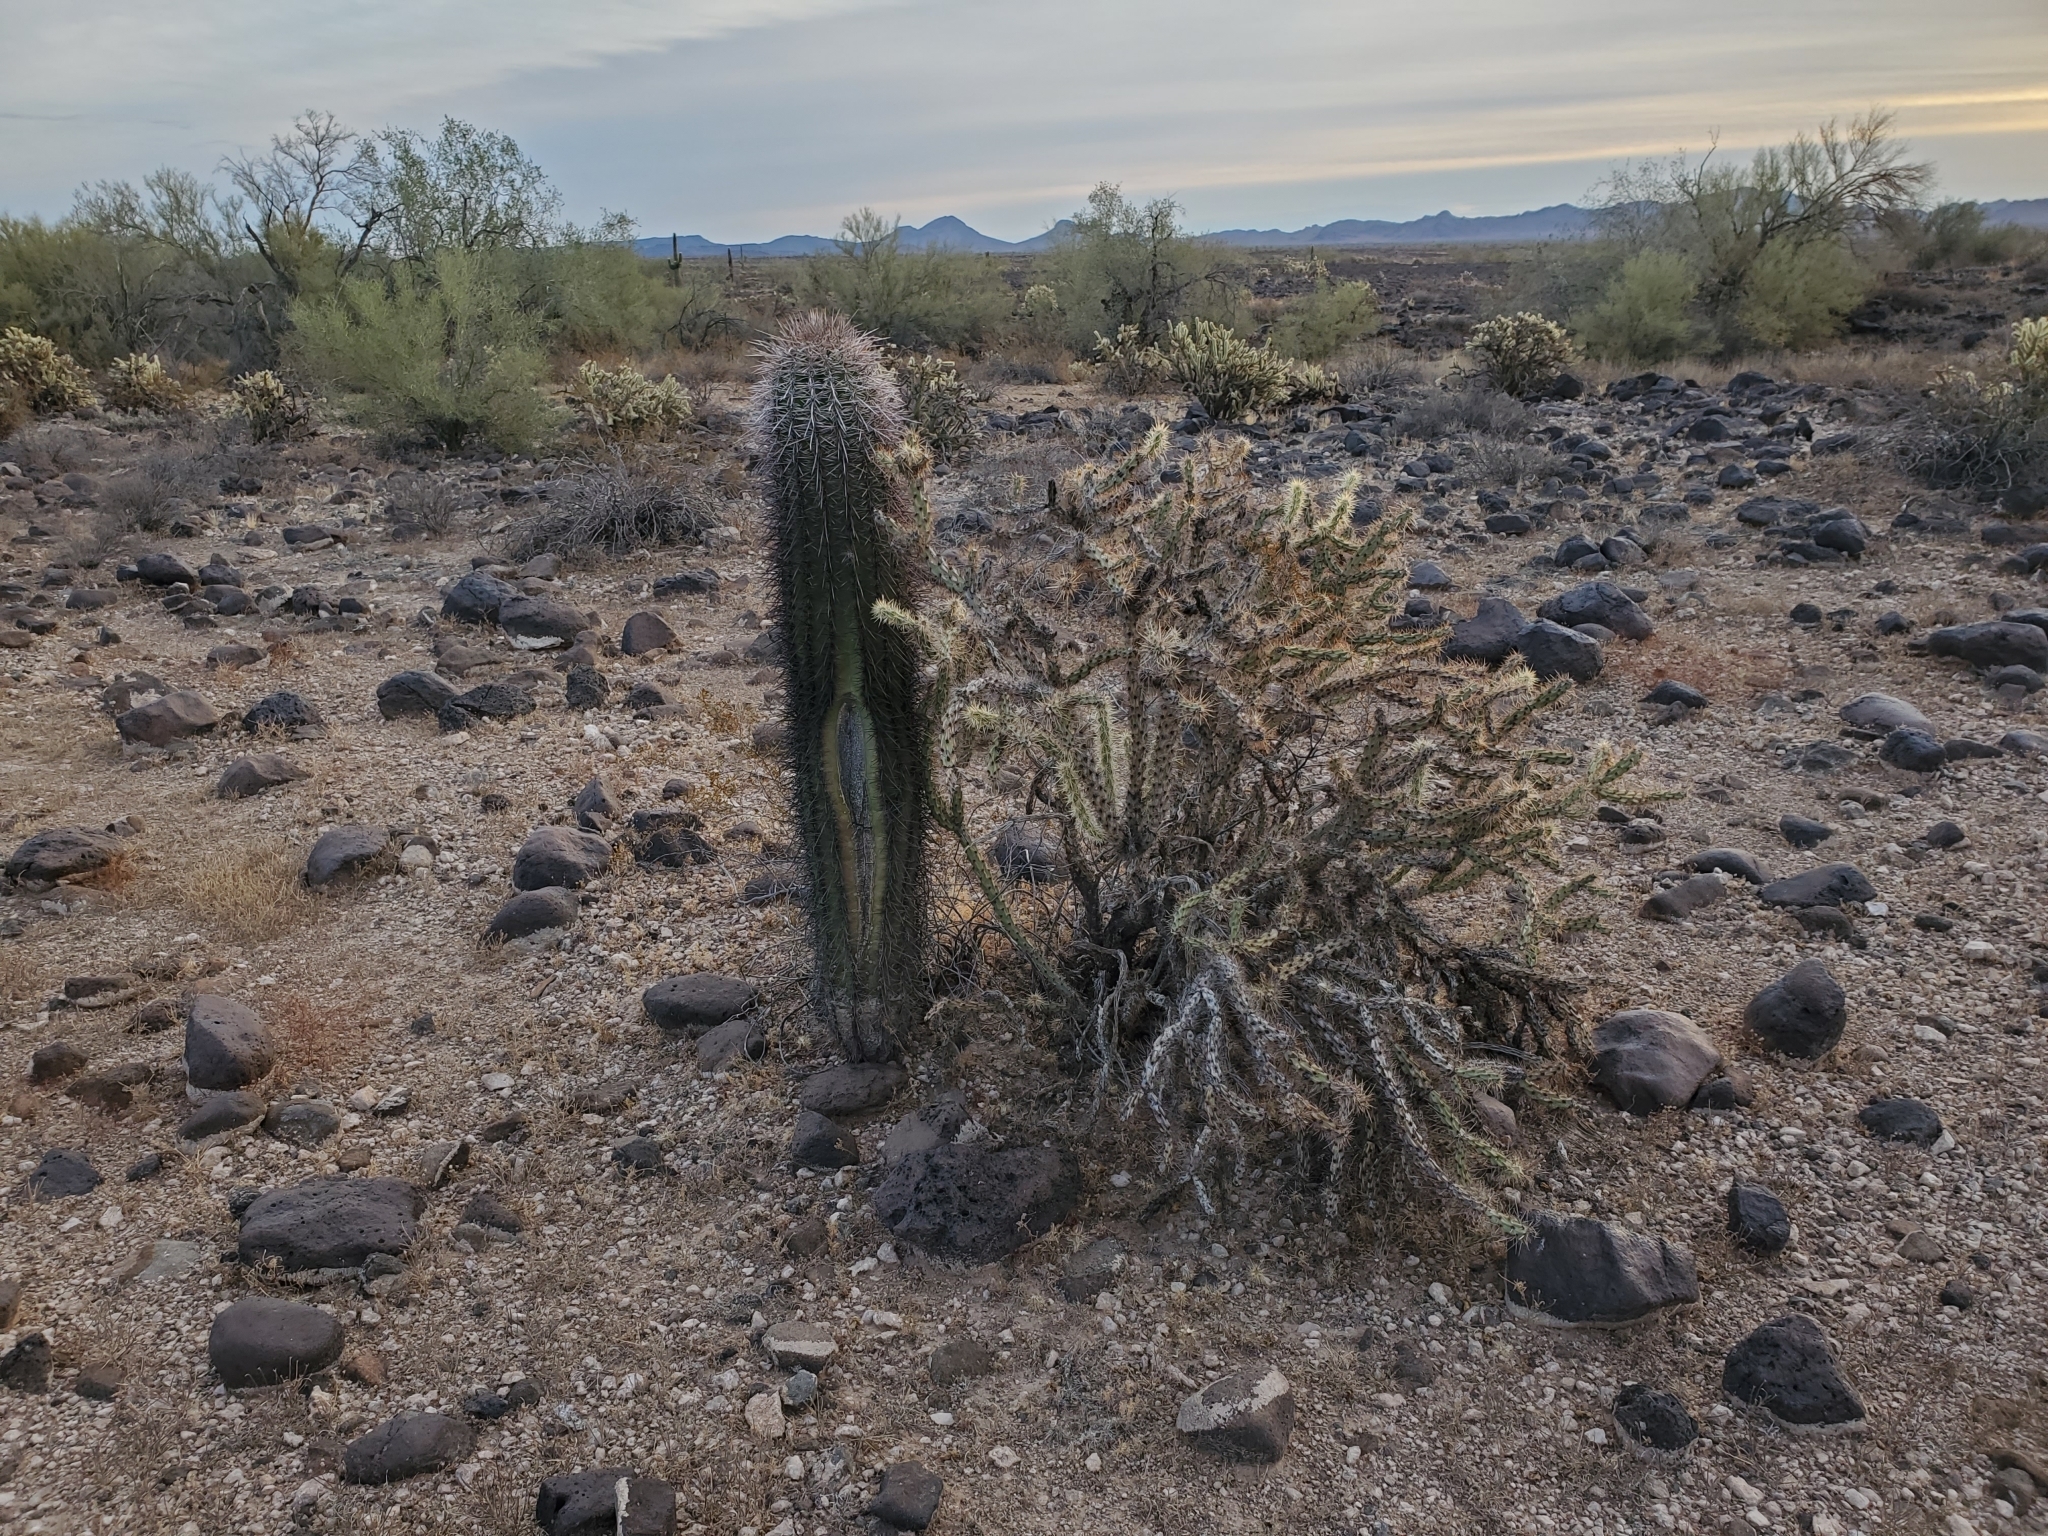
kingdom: Plantae
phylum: Tracheophyta
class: Magnoliopsida
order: Caryophyllales
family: Cactaceae
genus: Carnegiea
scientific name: Carnegiea gigantea
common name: Saguaro
